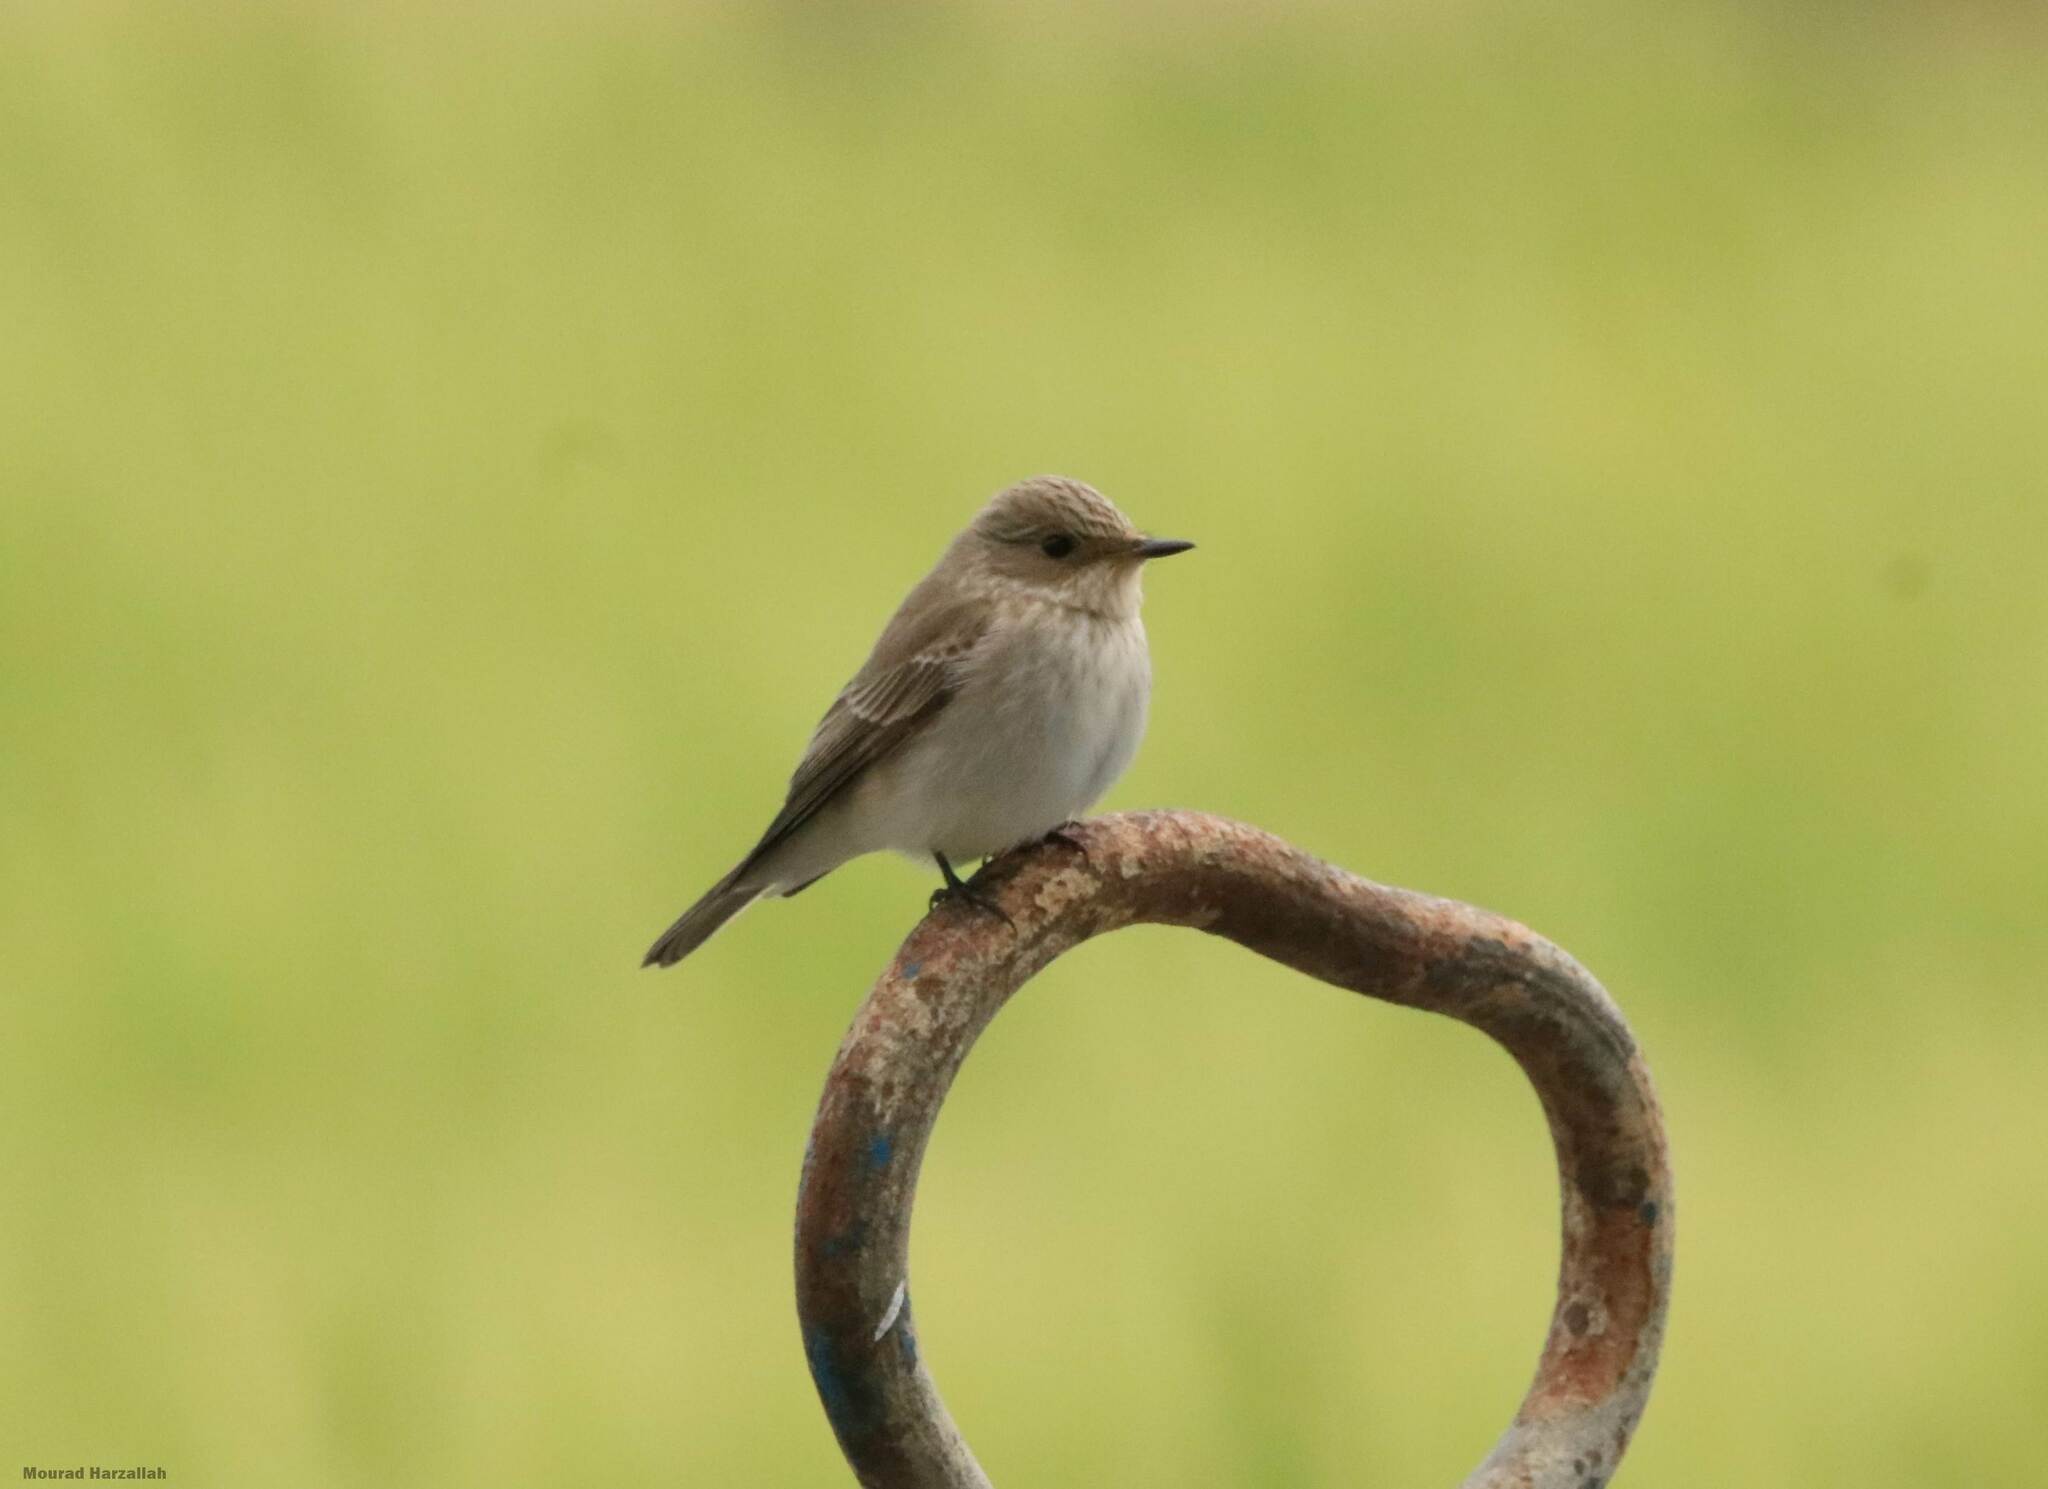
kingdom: Animalia
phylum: Chordata
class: Aves
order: Passeriformes
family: Muscicapidae
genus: Muscicapa
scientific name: Muscicapa striata
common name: Spotted flycatcher
